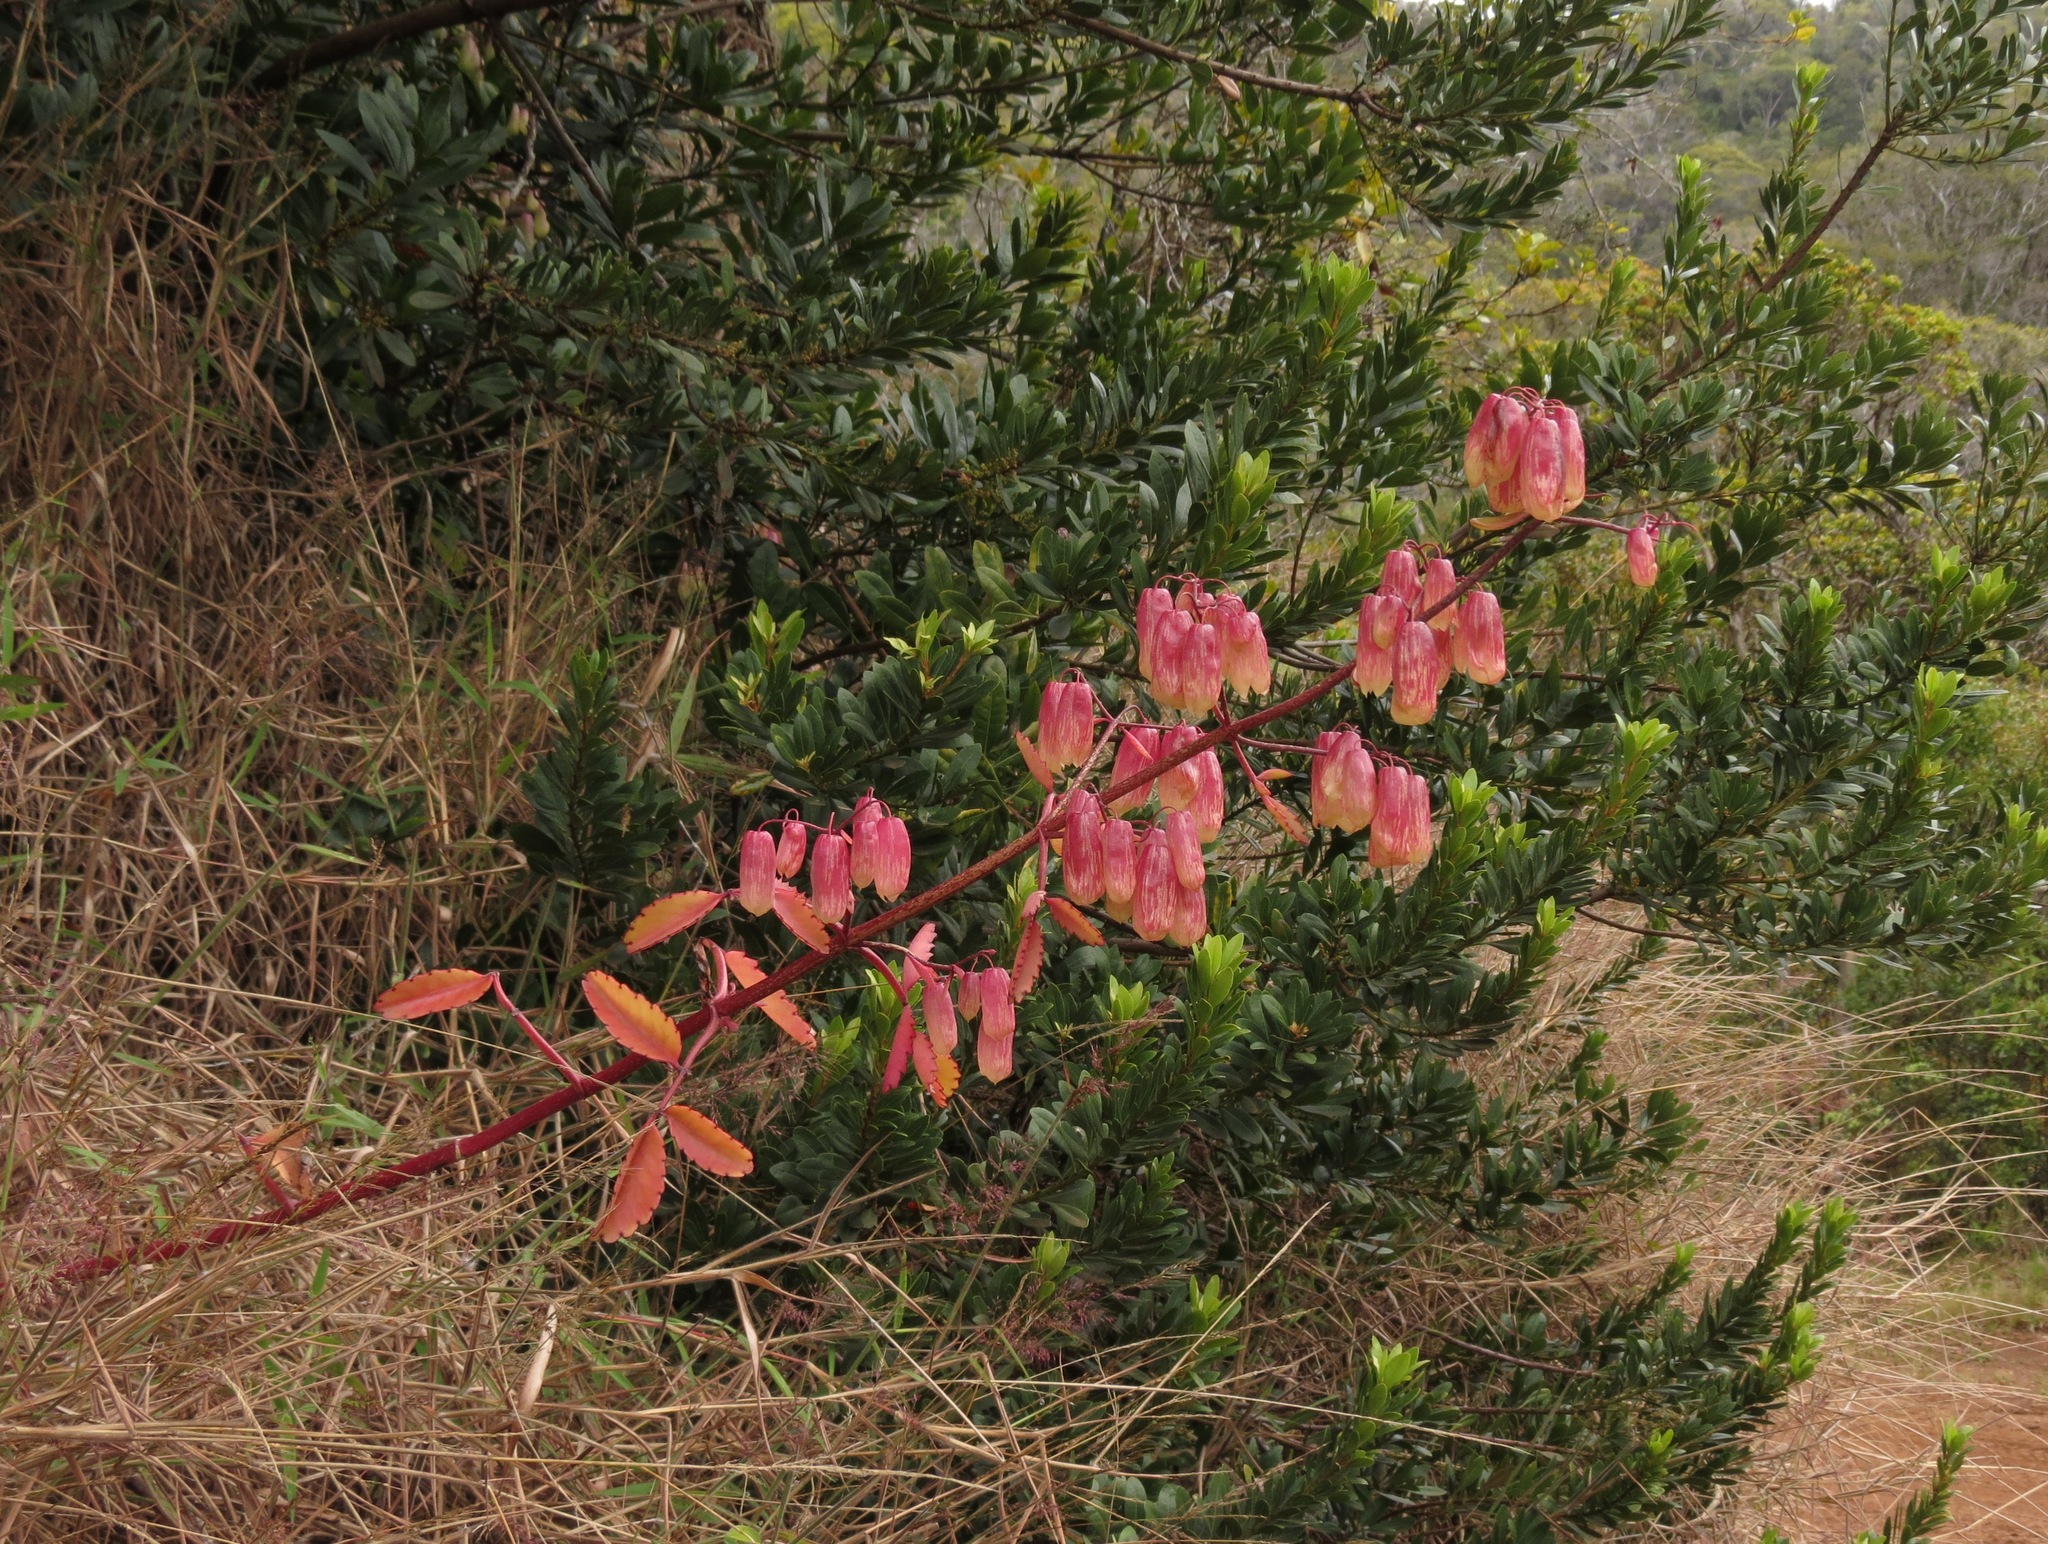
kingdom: Plantae
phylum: Tracheophyta
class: Magnoliopsida
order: Saxifragales
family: Crassulaceae
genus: Kalanchoe
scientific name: Kalanchoe pinnata
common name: Cathedral bells
